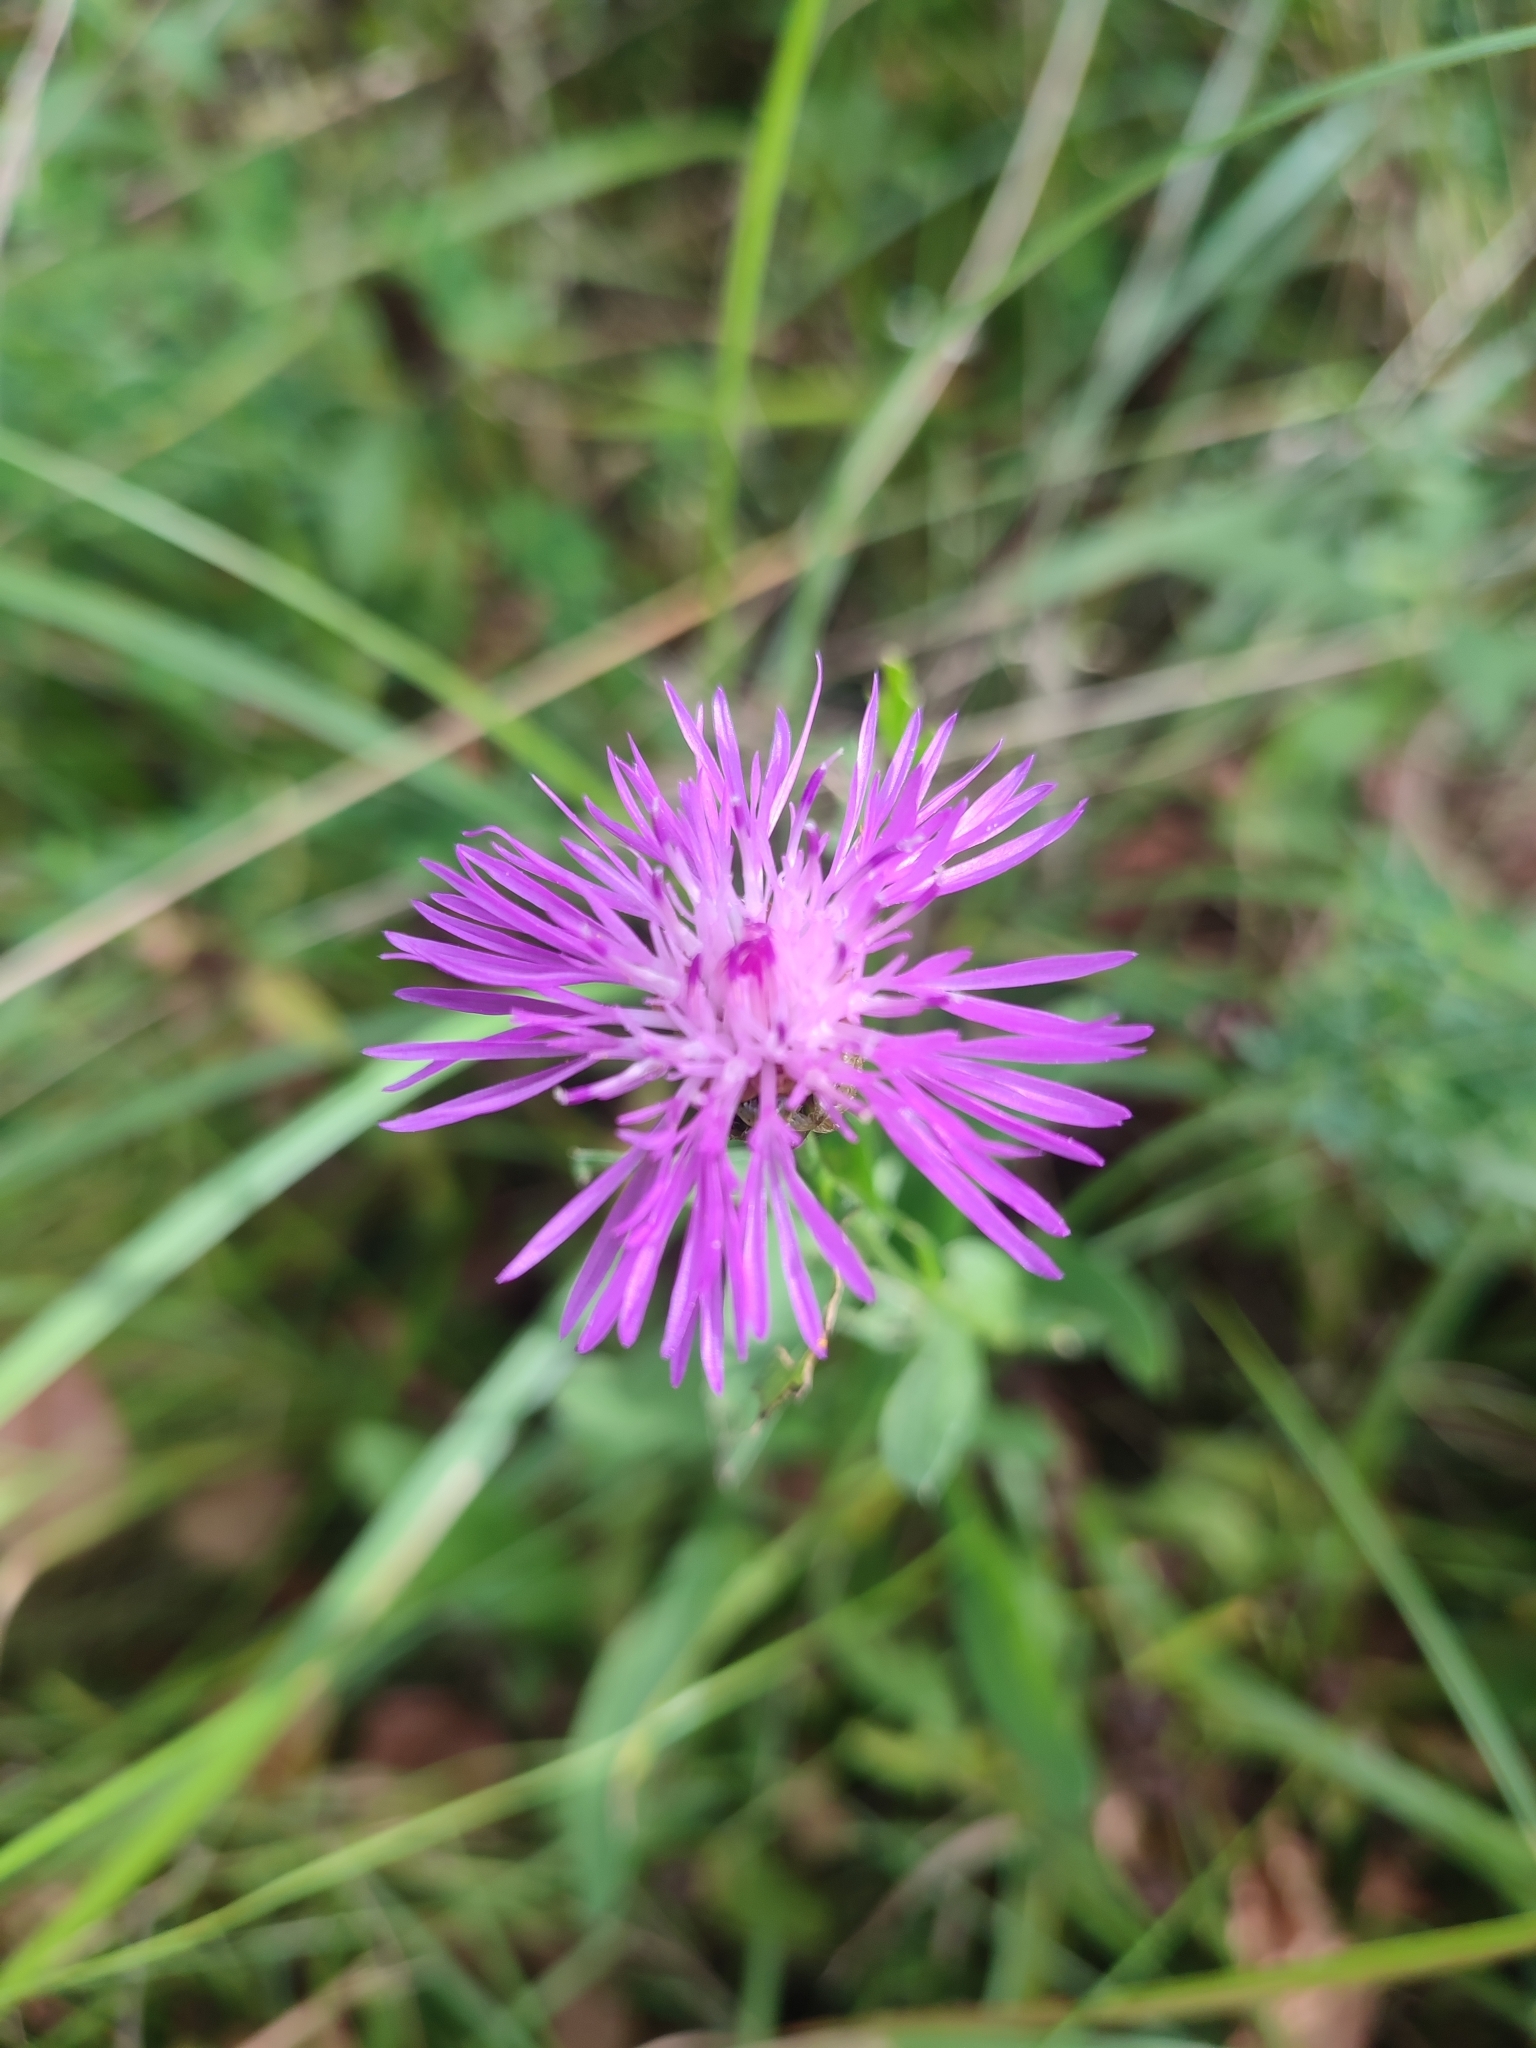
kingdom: Plantae
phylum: Tracheophyta
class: Magnoliopsida
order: Asterales
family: Asteraceae
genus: Centaurea
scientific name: Centaurea jacea
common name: Brown knapweed
